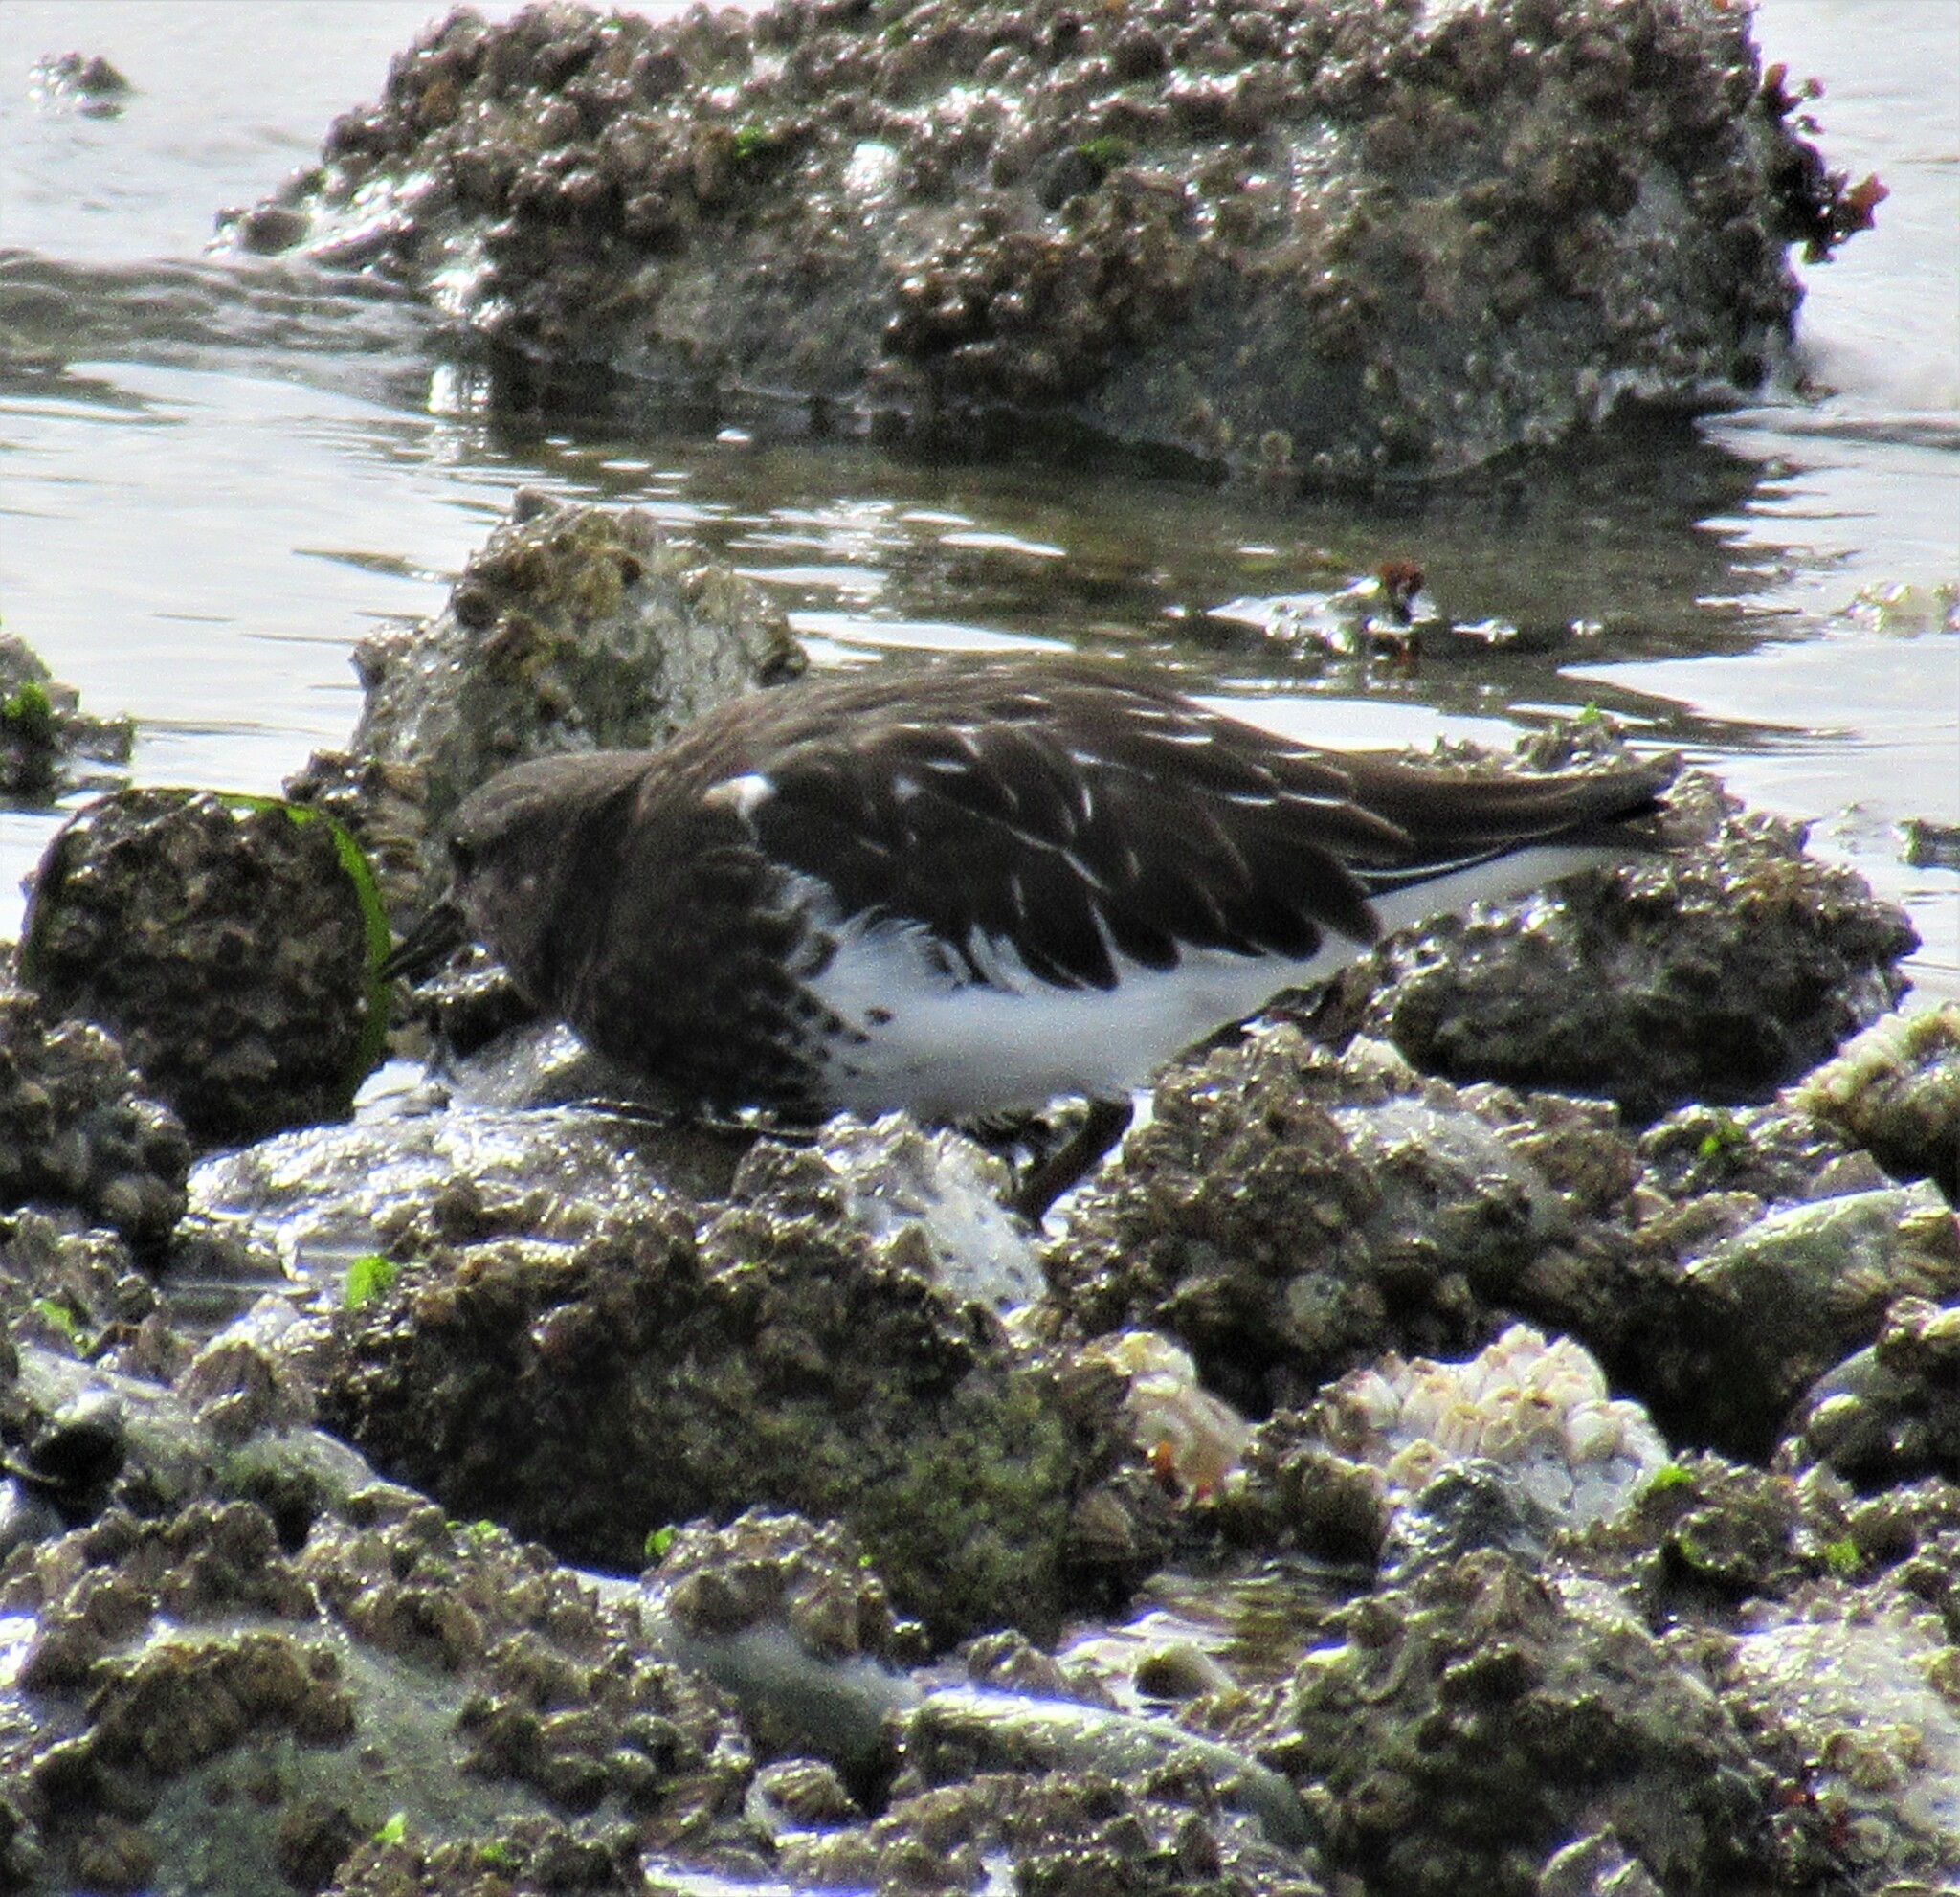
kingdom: Animalia
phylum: Chordata
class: Aves
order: Charadriiformes
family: Scolopacidae
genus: Arenaria
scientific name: Arenaria melanocephala
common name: Black turnstone
